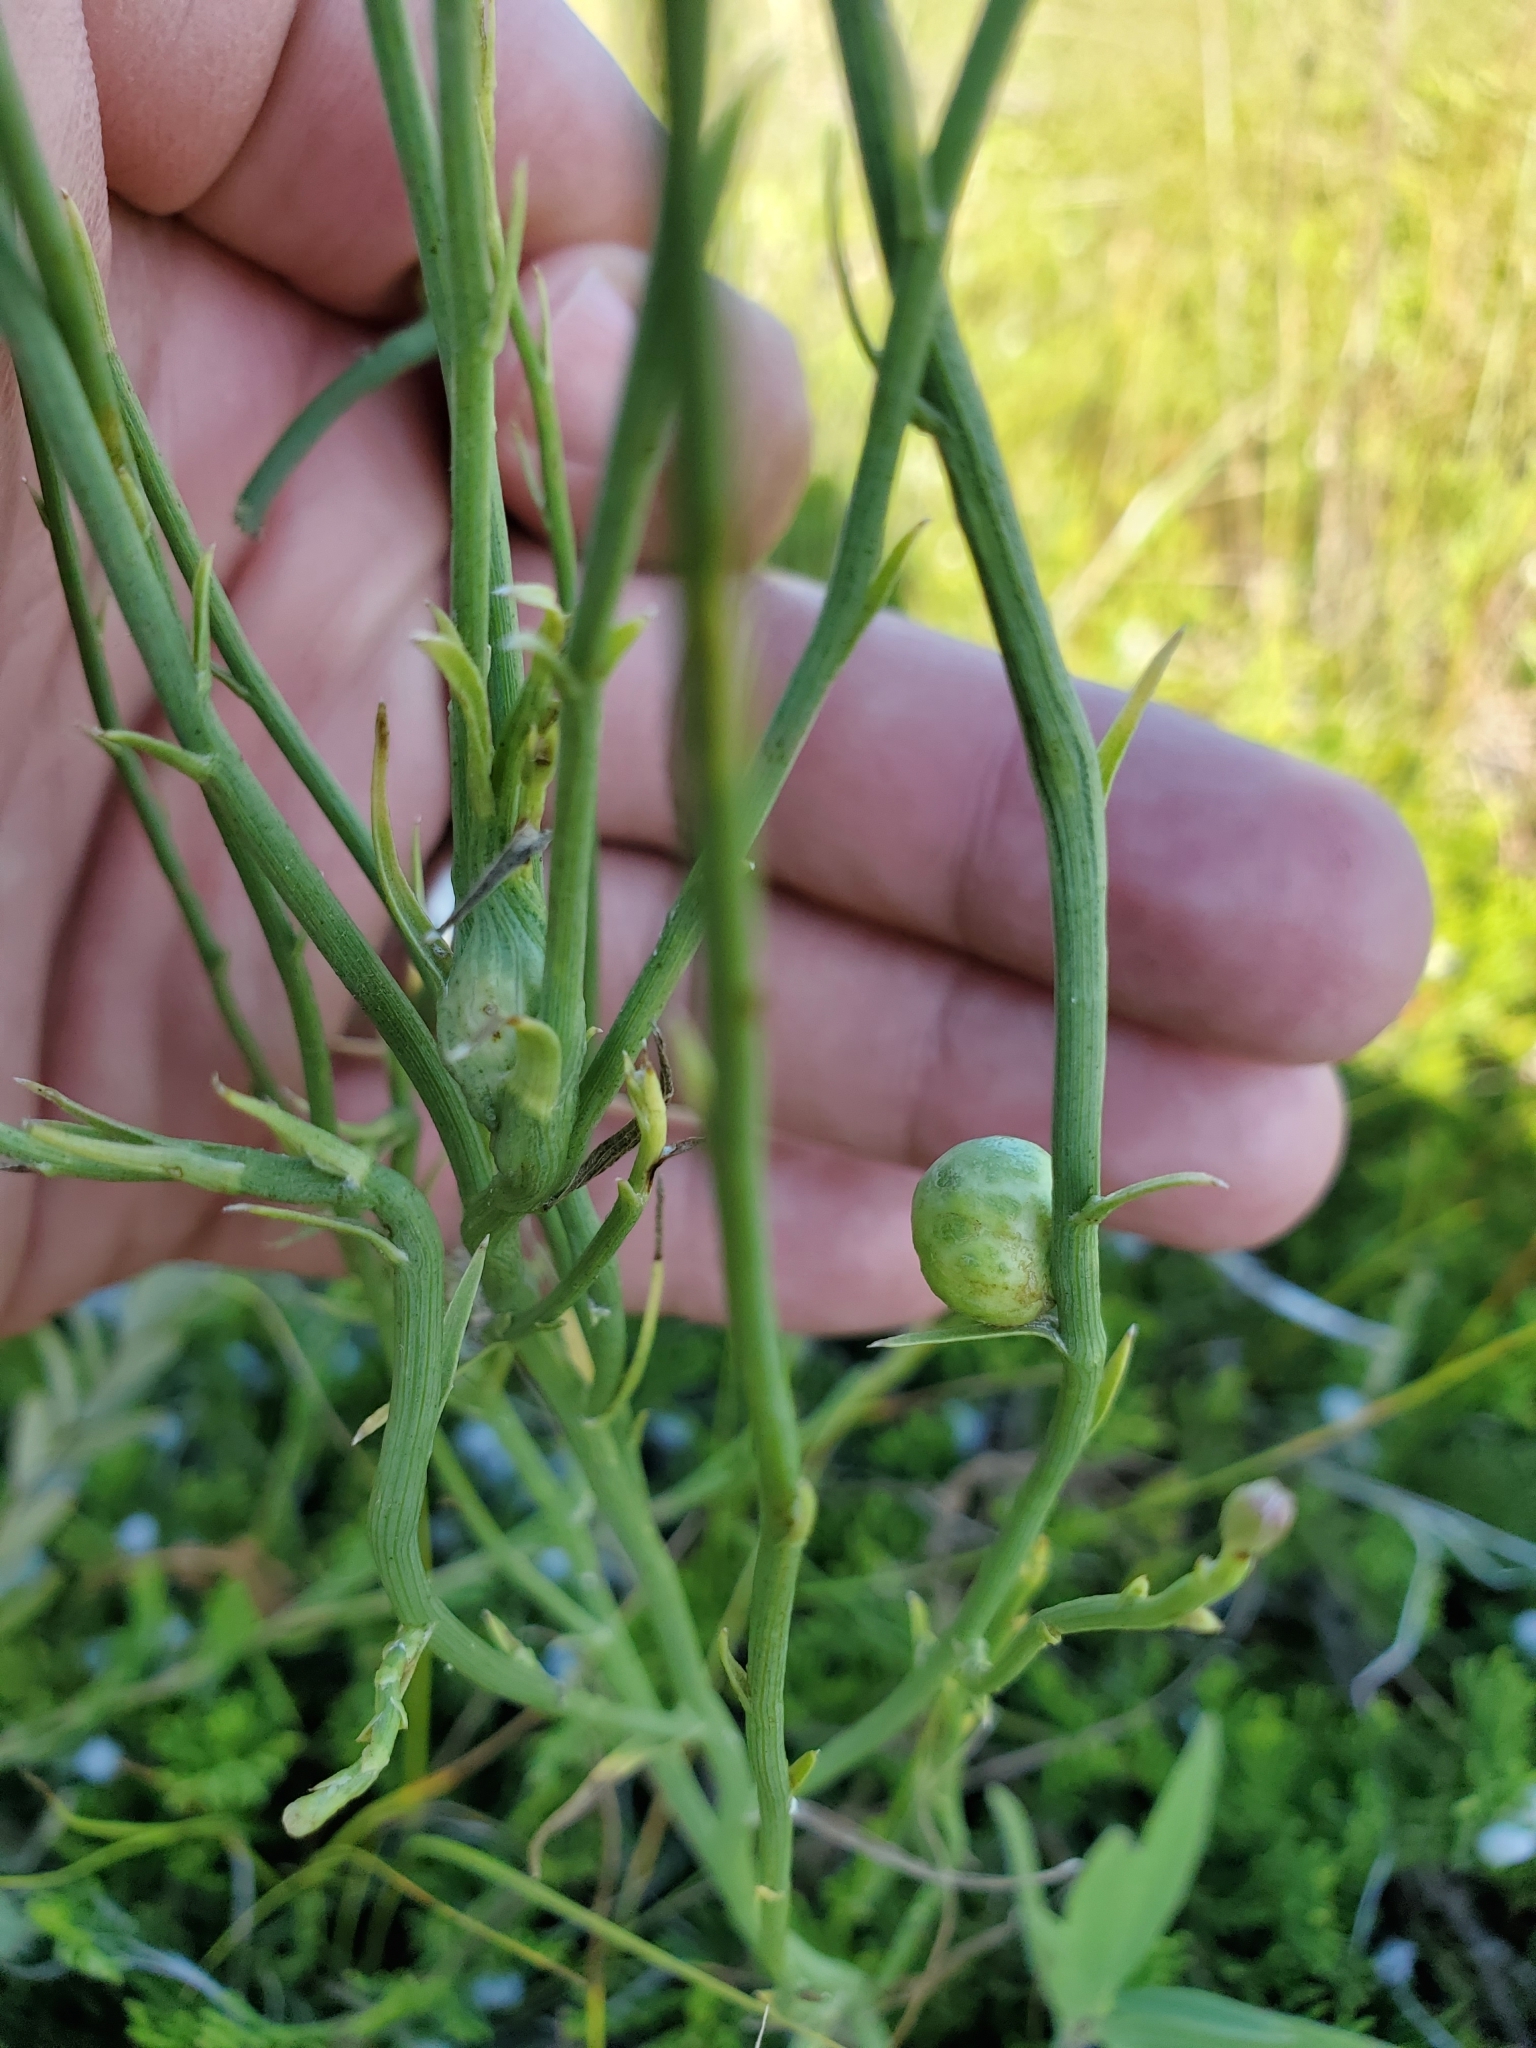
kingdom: Animalia
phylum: Arthropoda
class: Insecta
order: Hymenoptera
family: Cynipidae
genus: Antistrophus
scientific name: Antistrophus
